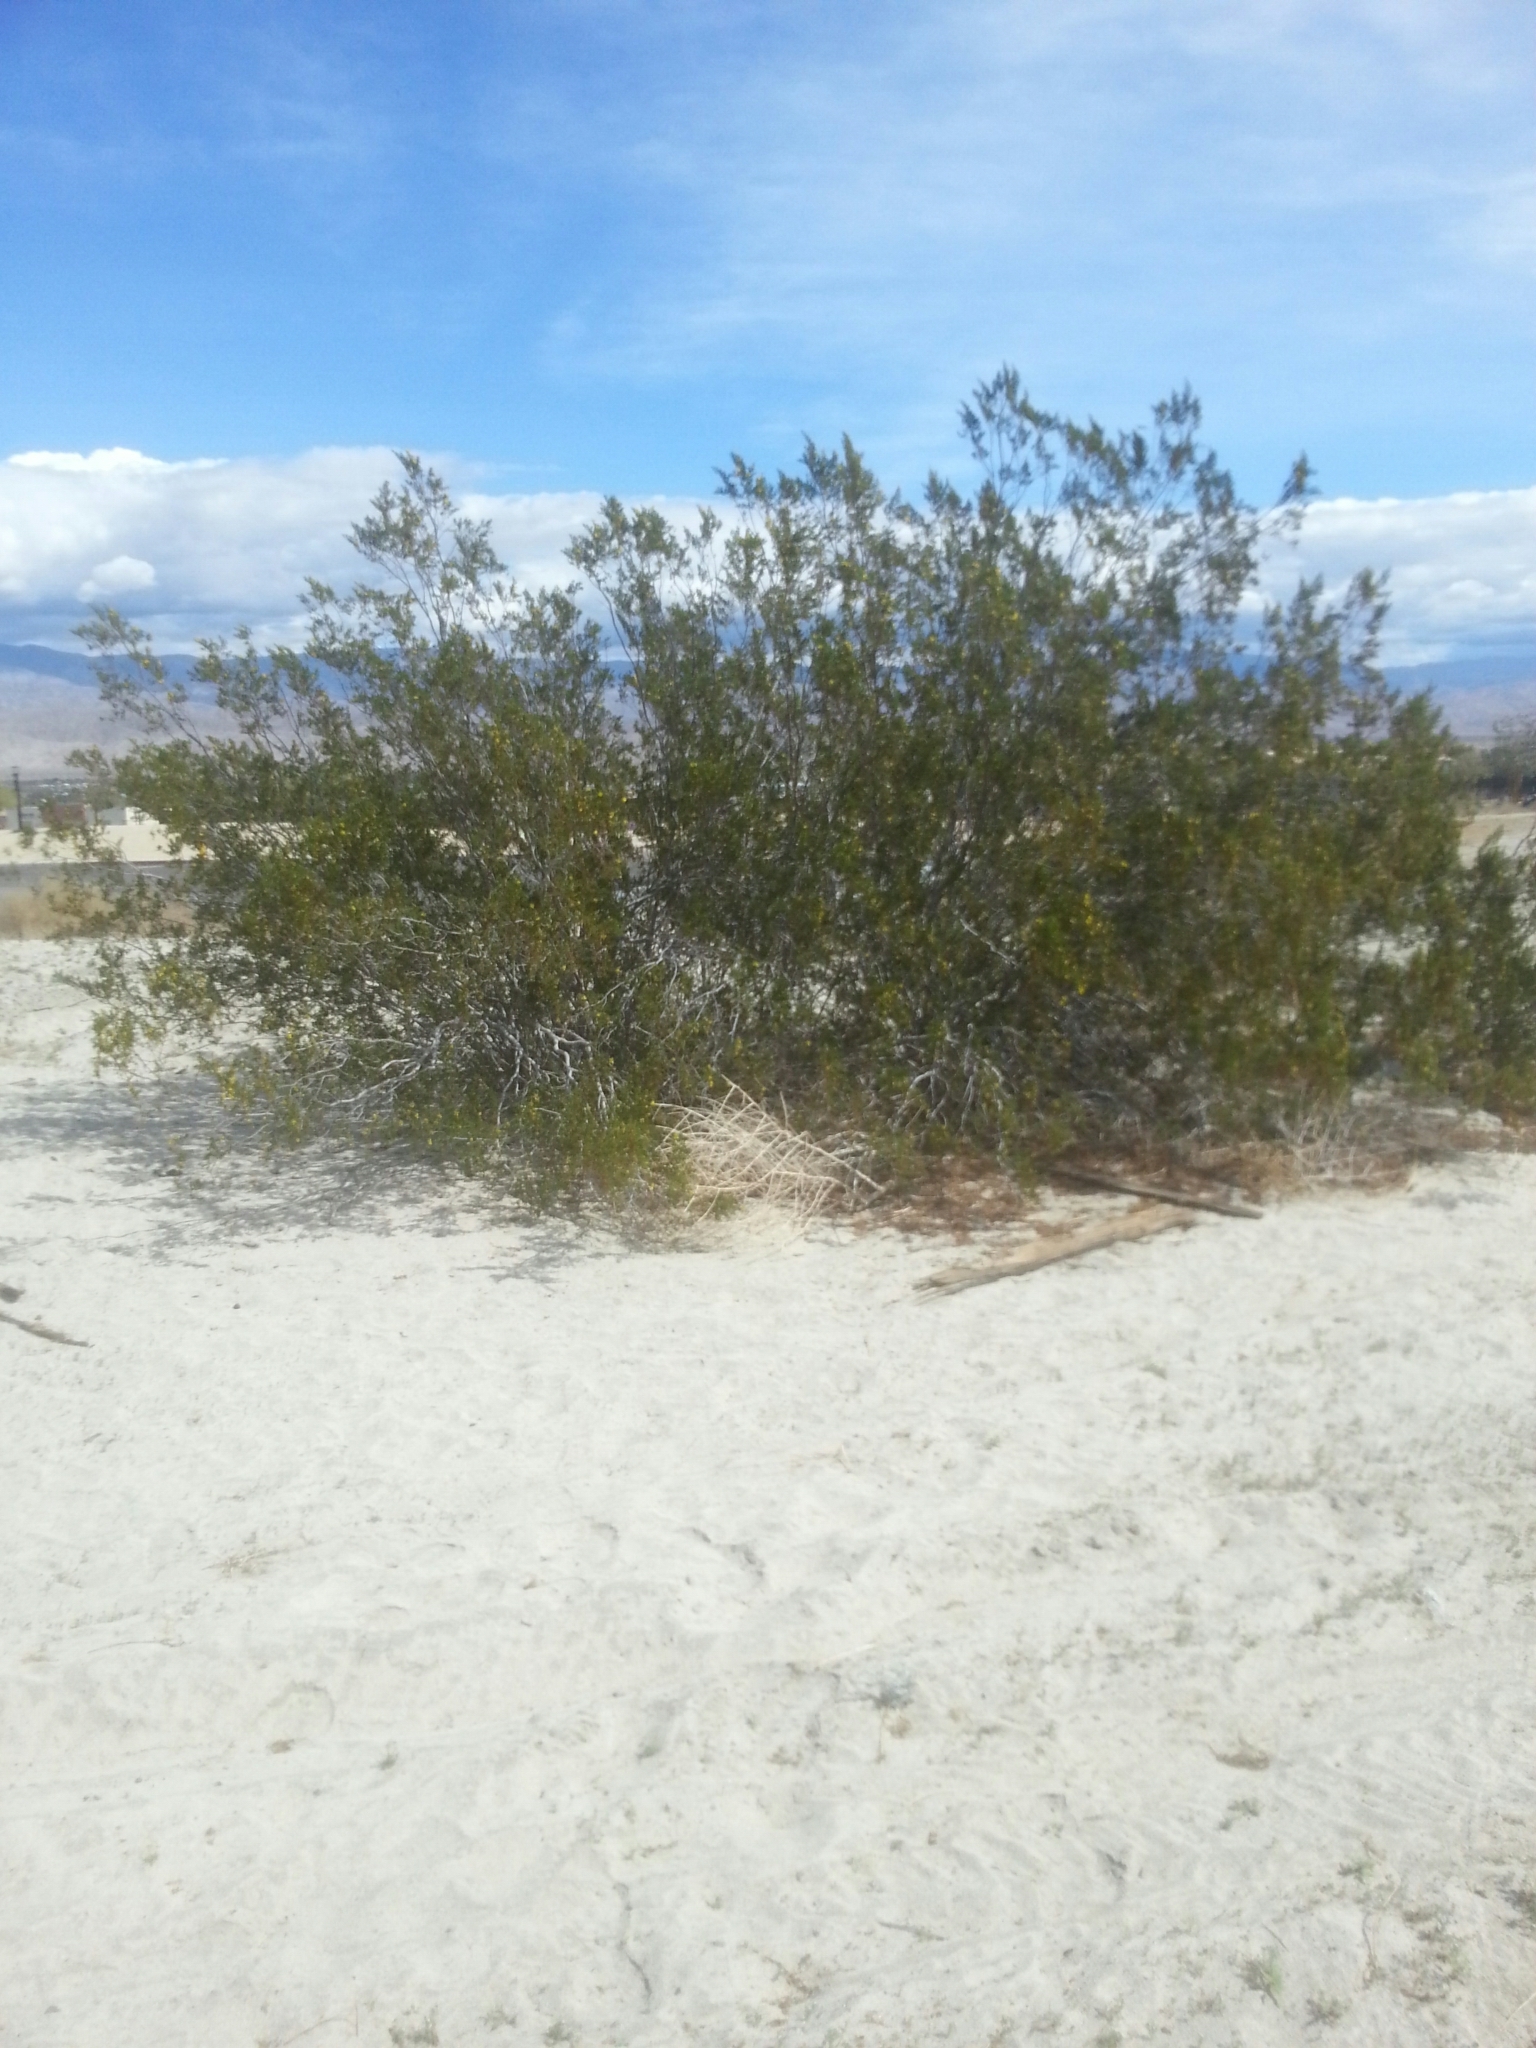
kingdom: Plantae
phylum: Tracheophyta
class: Magnoliopsida
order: Zygophyllales
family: Zygophyllaceae
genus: Larrea
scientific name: Larrea tridentata
